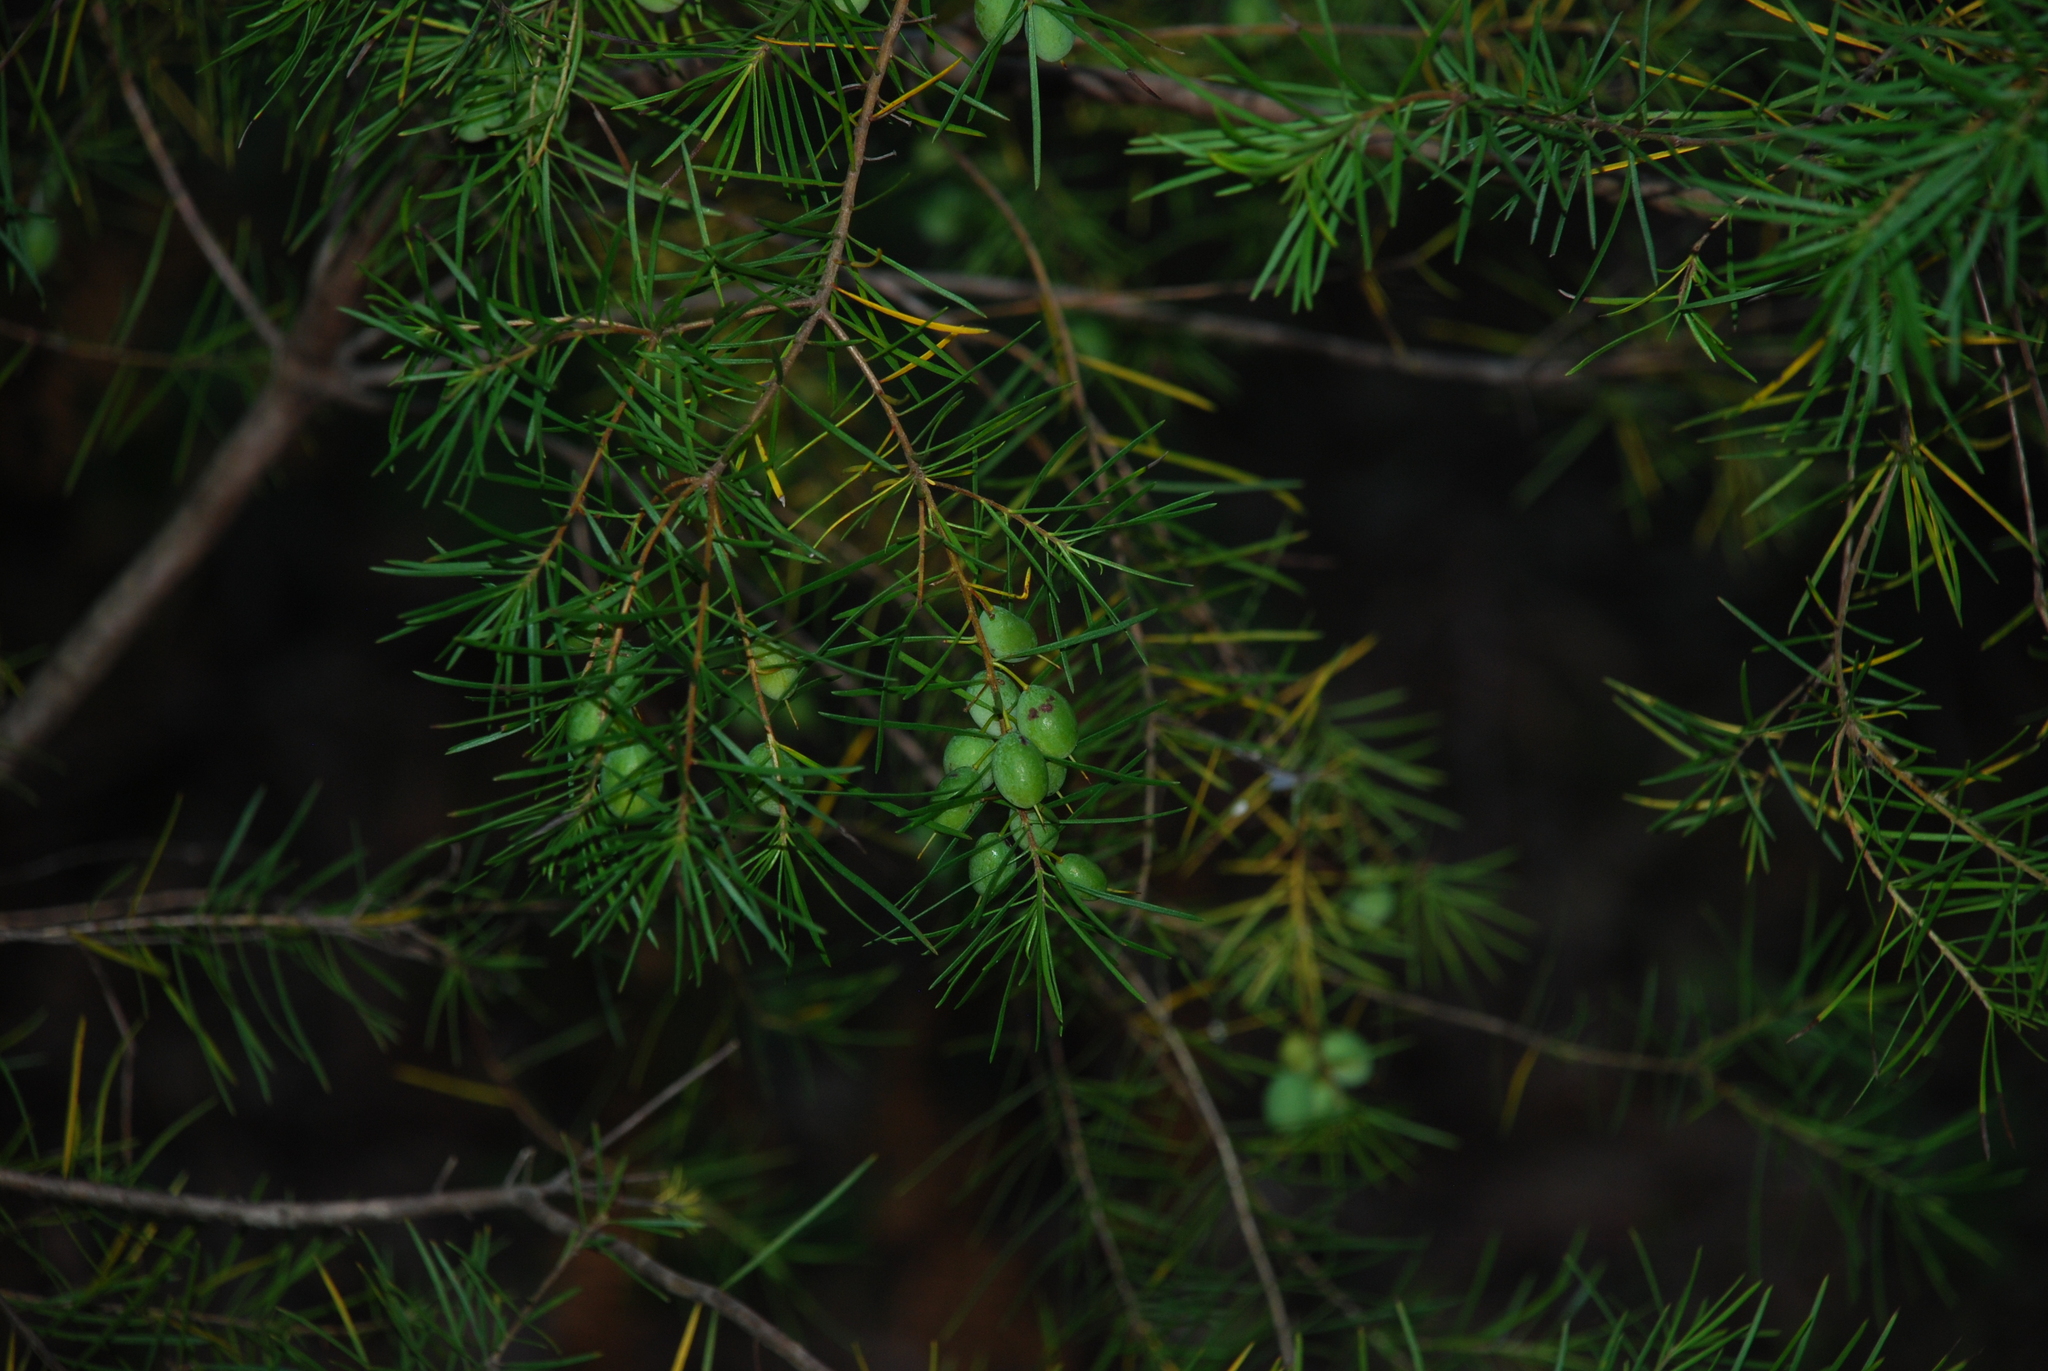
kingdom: Plantae
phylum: Tracheophyta
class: Magnoliopsida
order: Proteales
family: Proteaceae
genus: Persoonia
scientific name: Persoonia virgata
